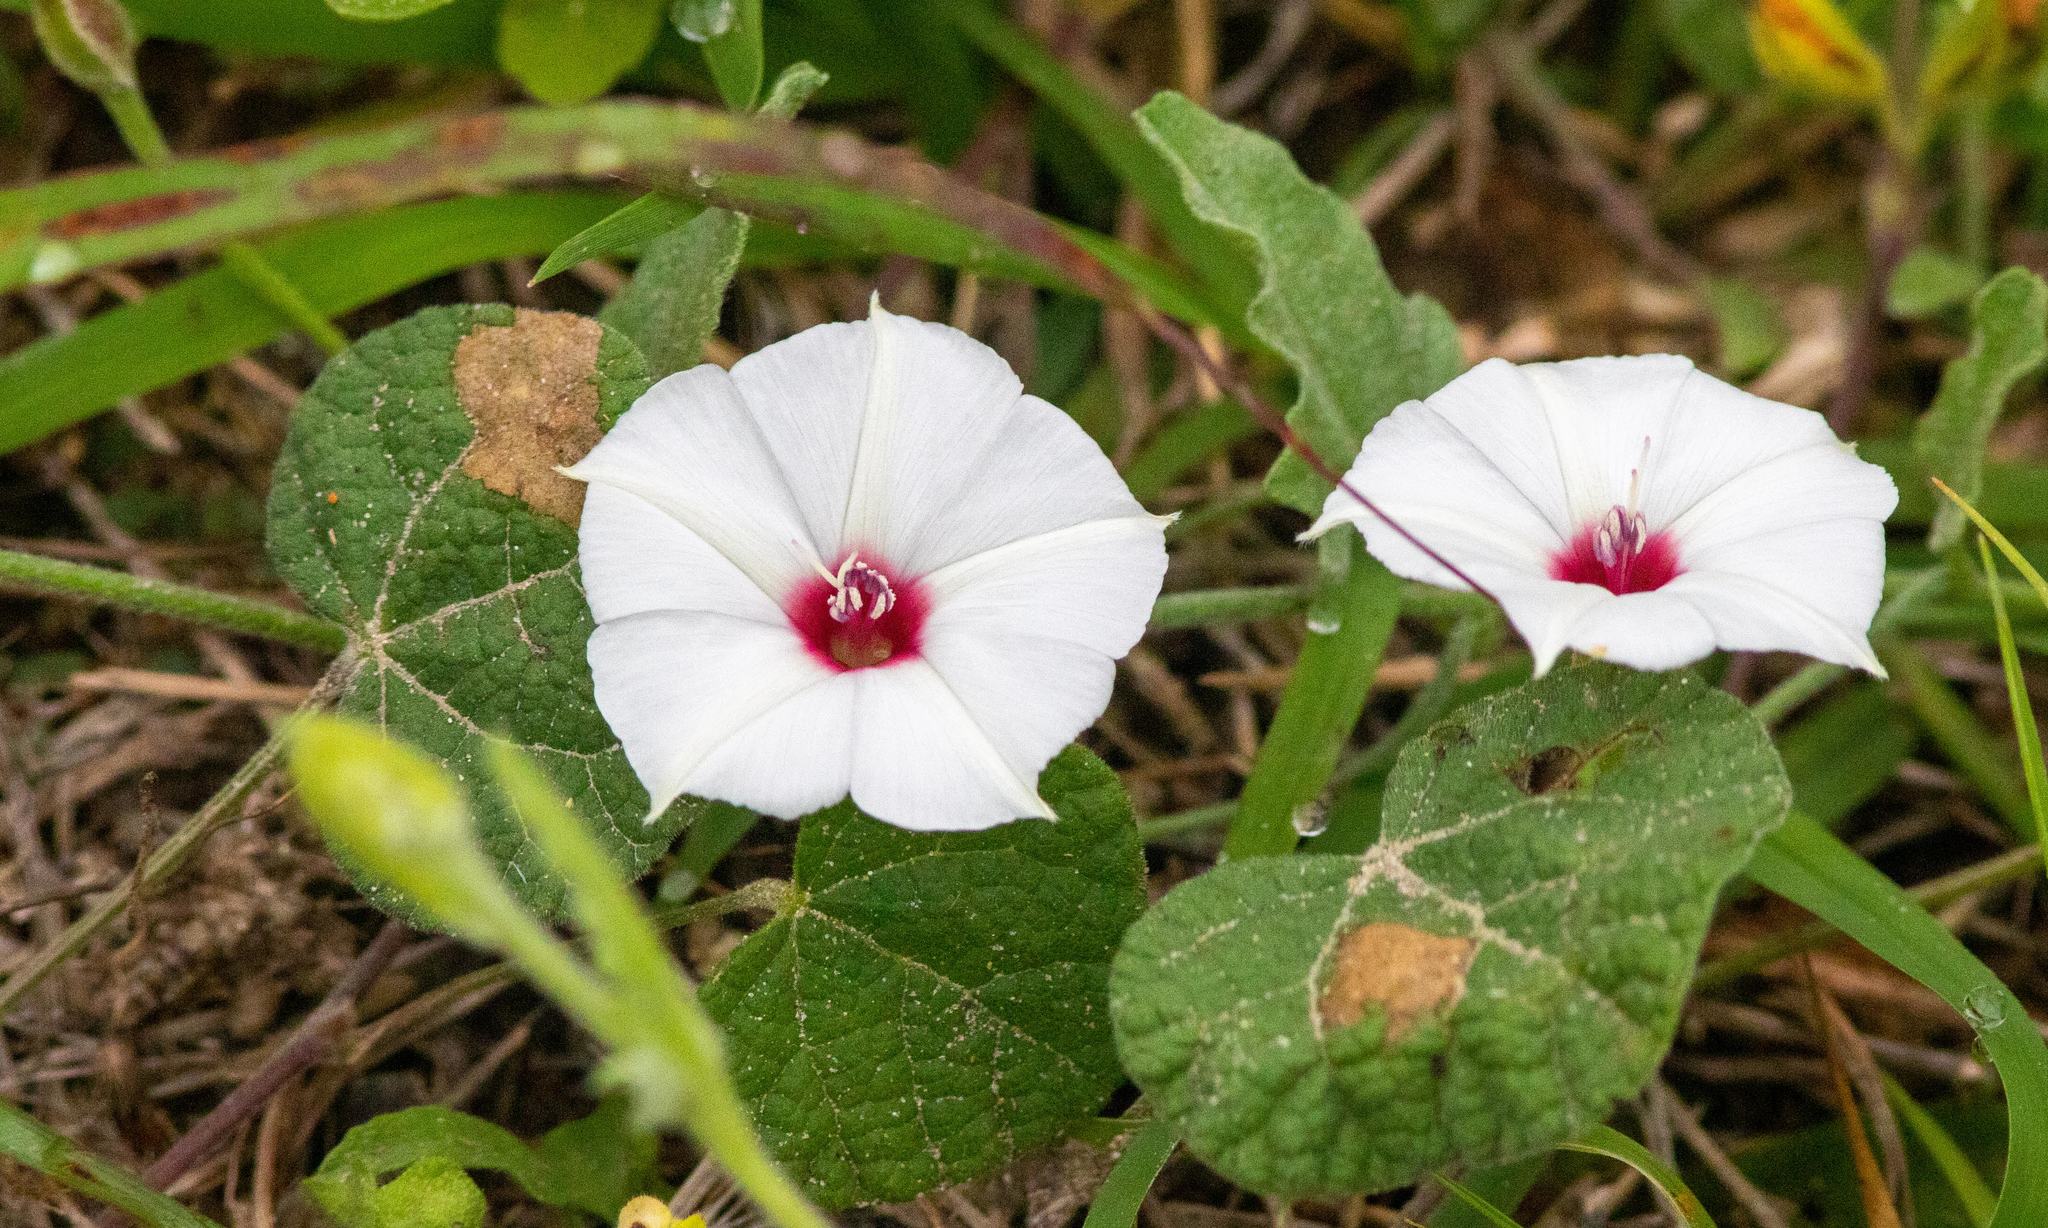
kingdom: Plantae
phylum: Tracheophyta
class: Magnoliopsida
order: Solanales
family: Convolvulaceae
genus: Convolvulus
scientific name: Convolvulus equitans
